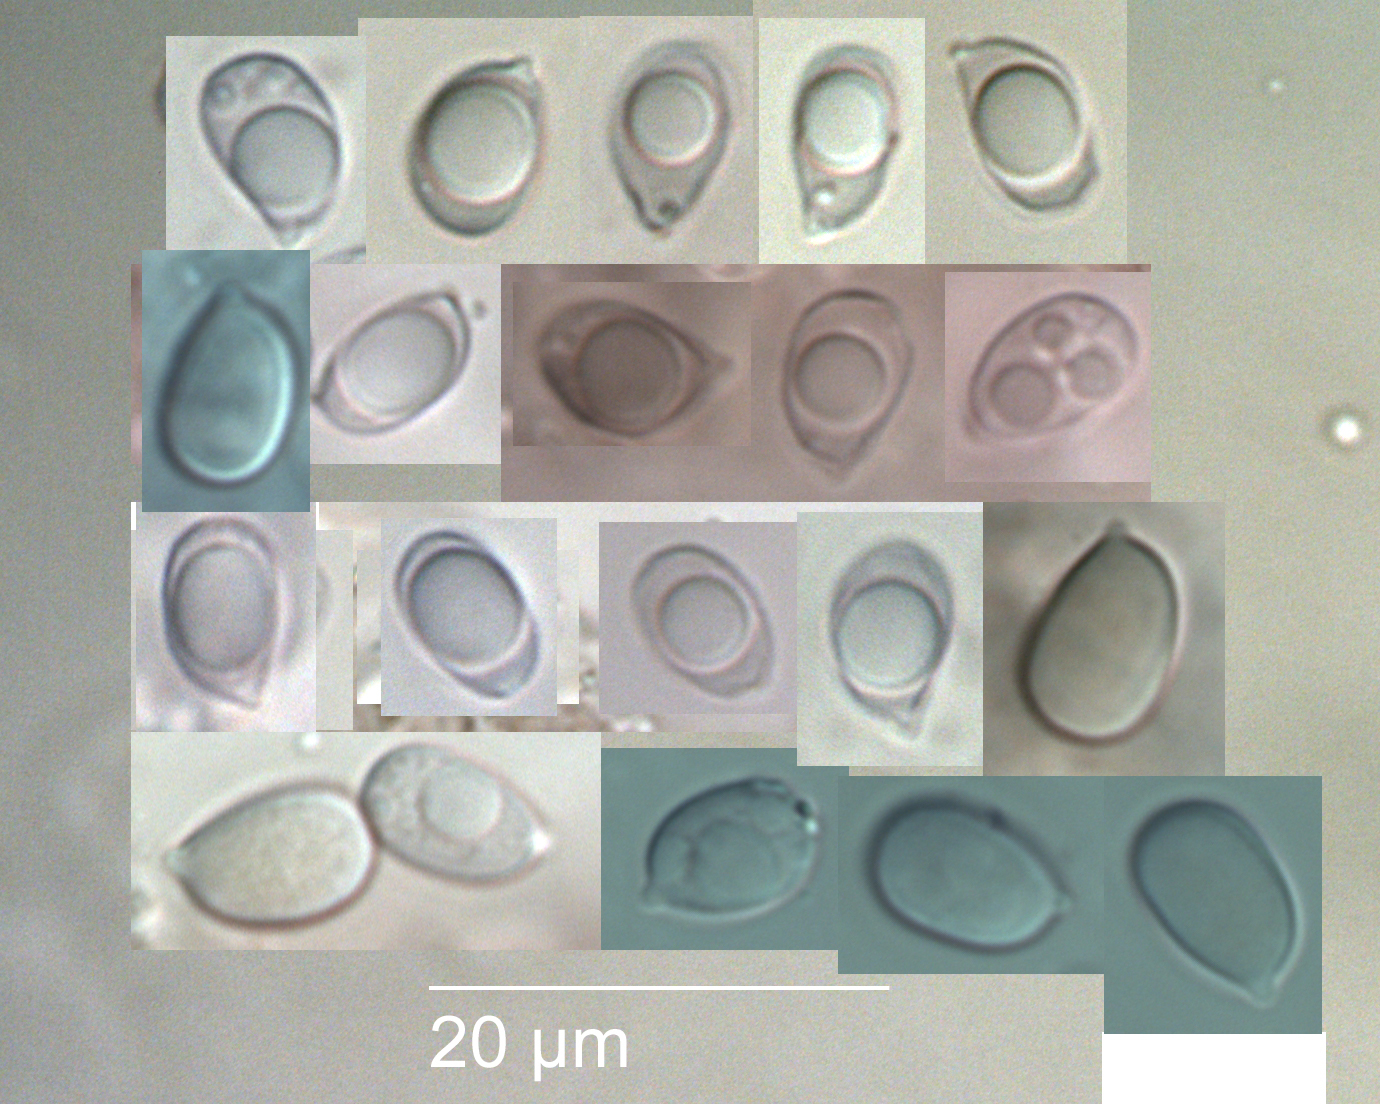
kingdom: Fungi
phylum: Basidiomycota
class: Agaricomycetes
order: Agaricales
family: Mycenaceae
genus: Mycena
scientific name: Mycena tenerrima
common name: Frosty bonnet
